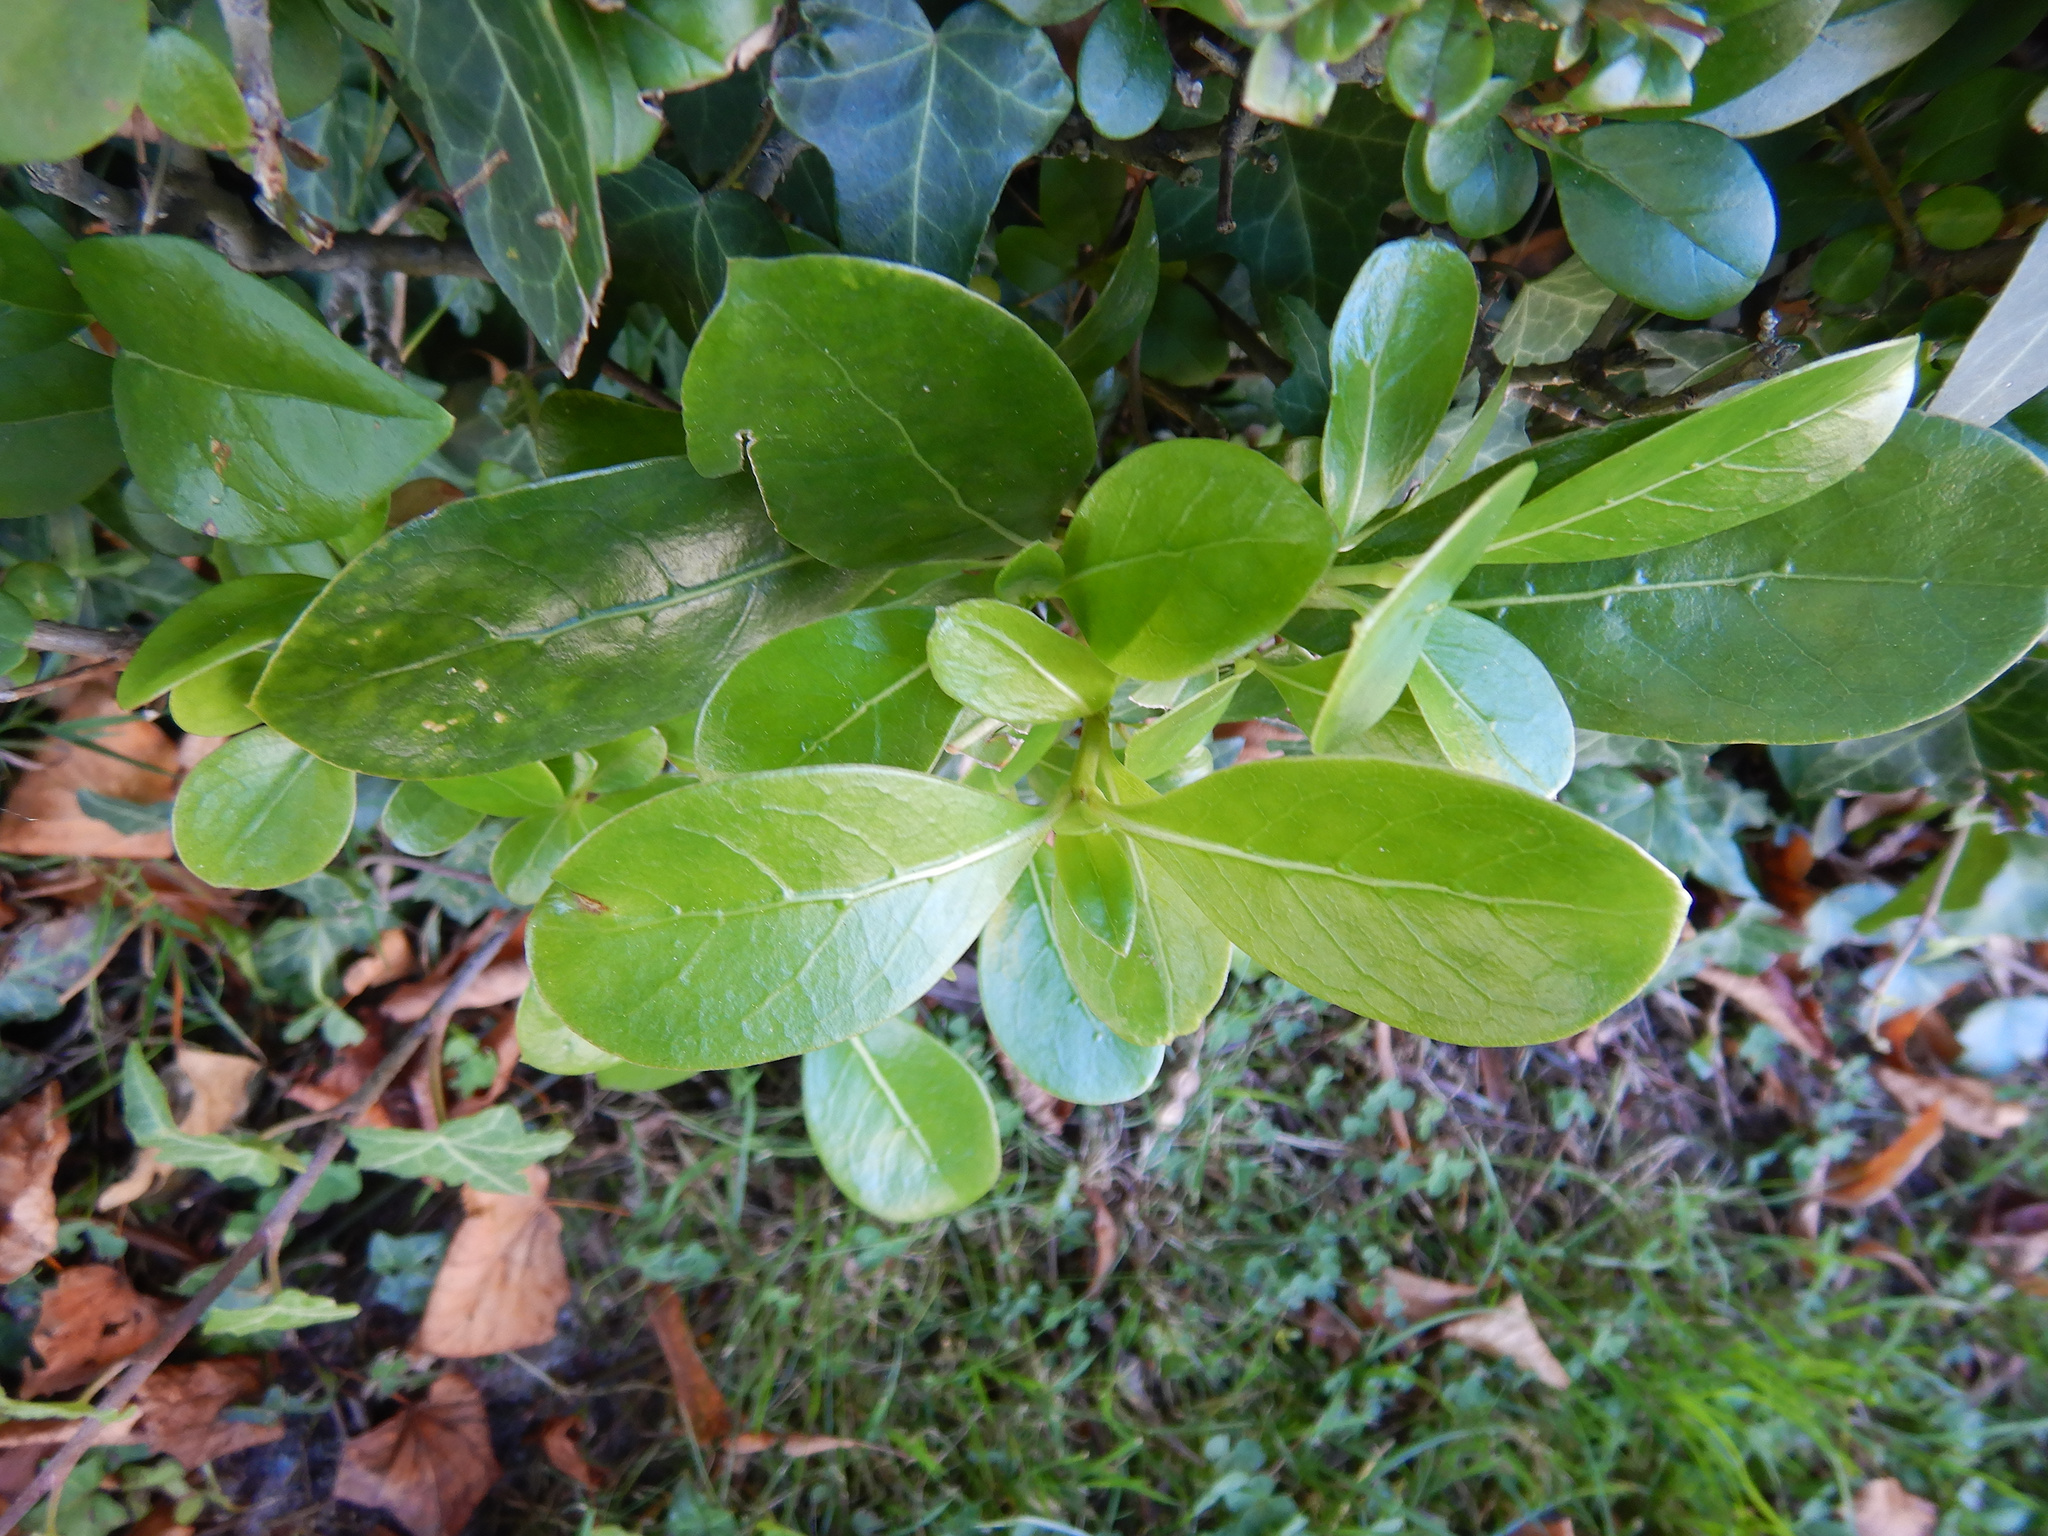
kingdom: Plantae
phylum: Tracheophyta
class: Magnoliopsida
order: Gentianales
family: Rubiaceae
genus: Coprosma
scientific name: Coprosma lucida
